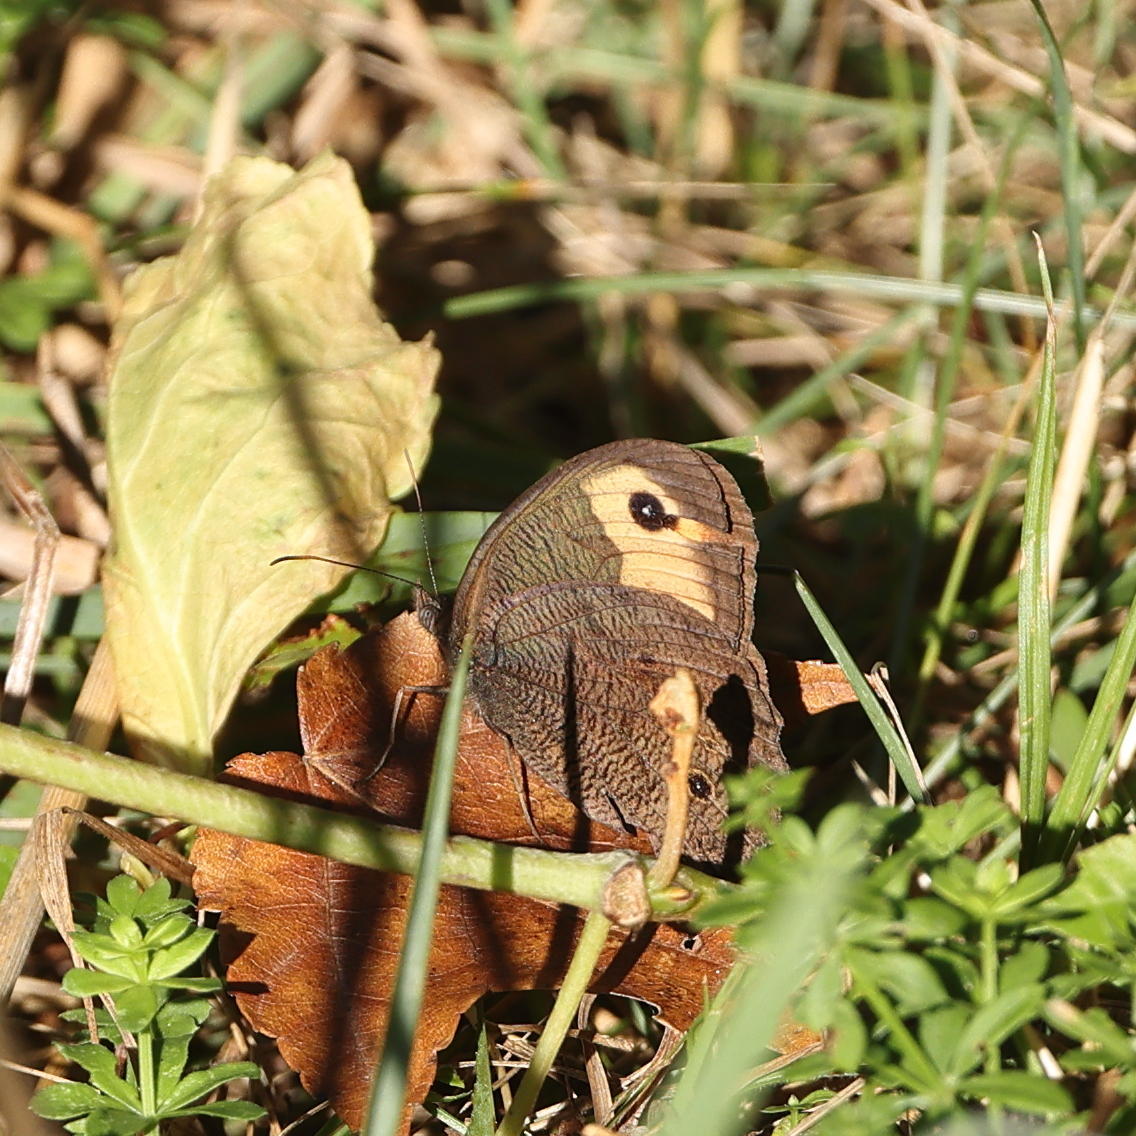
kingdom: Animalia
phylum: Arthropoda
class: Insecta
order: Lepidoptera
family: Nymphalidae
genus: Cercyonis
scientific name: Cercyonis pegala
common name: Common wood-nymph
